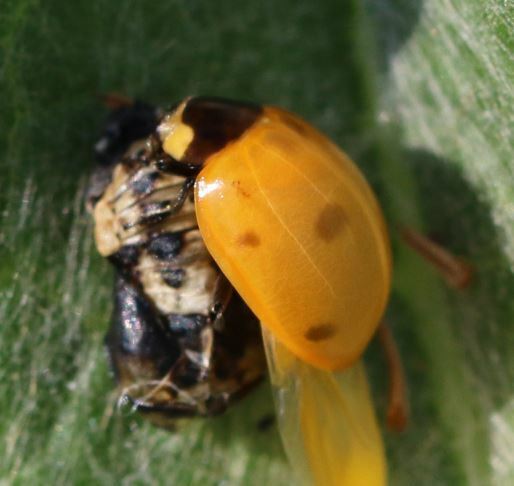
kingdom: Animalia
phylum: Arthropoda
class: Insecta
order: Coleoptera
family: Coccinellidae
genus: Coccinella
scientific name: Coccinella septempunctata
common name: Sevenspotted lady beetle
